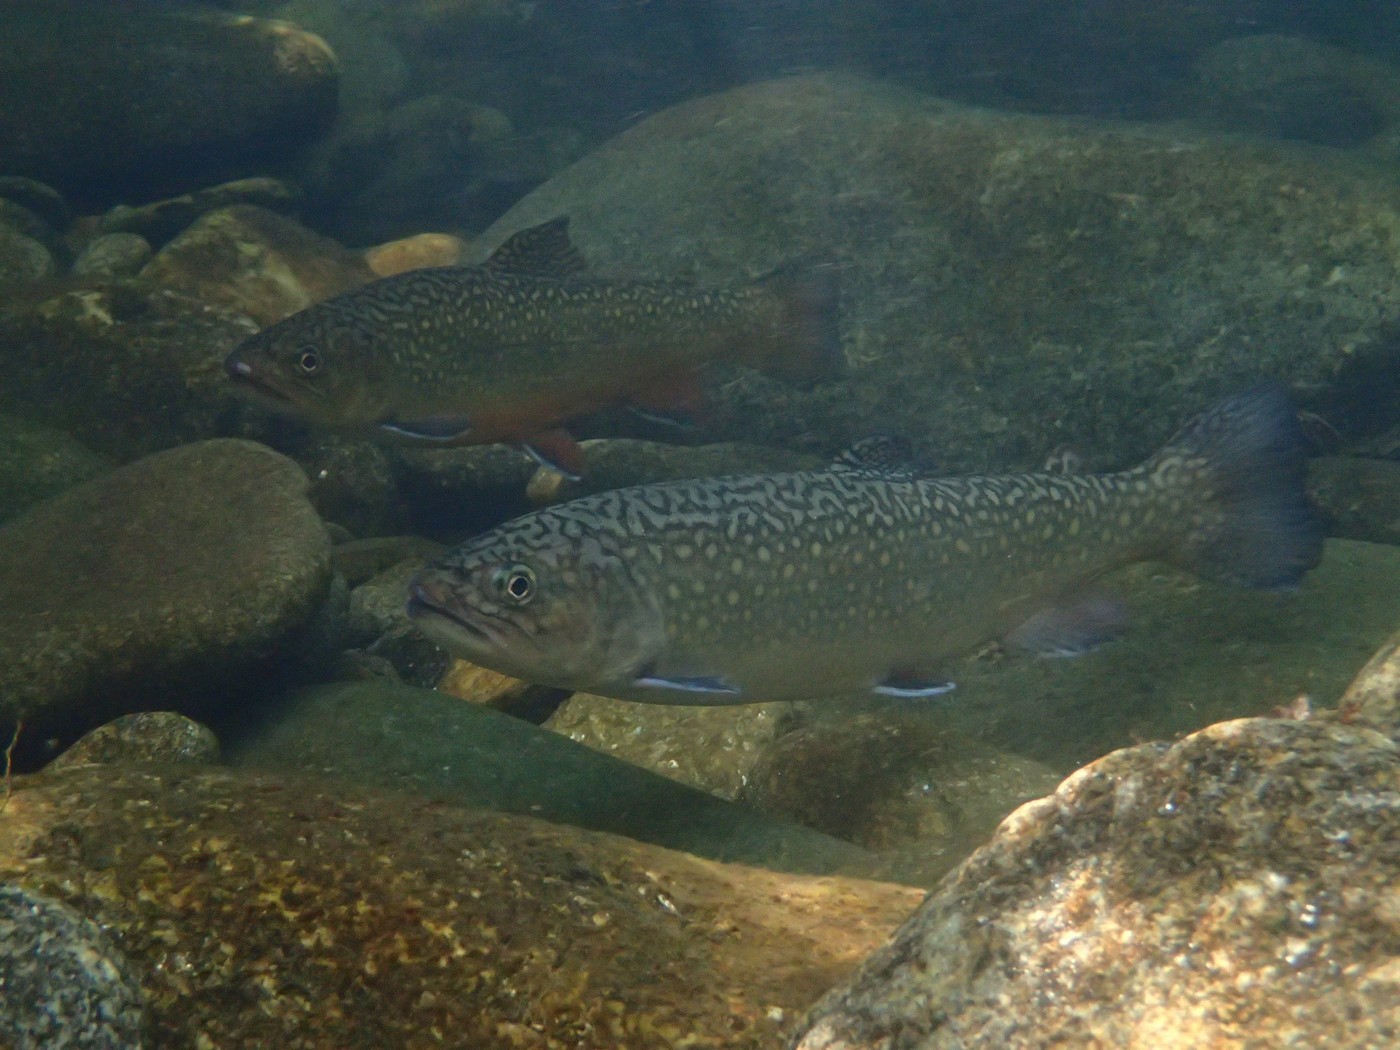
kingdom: Animalia
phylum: Chordata
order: Salmoniformes
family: Salmonidae
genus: Salvelinus
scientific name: Salvelinus fontinalis
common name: Brook trout
